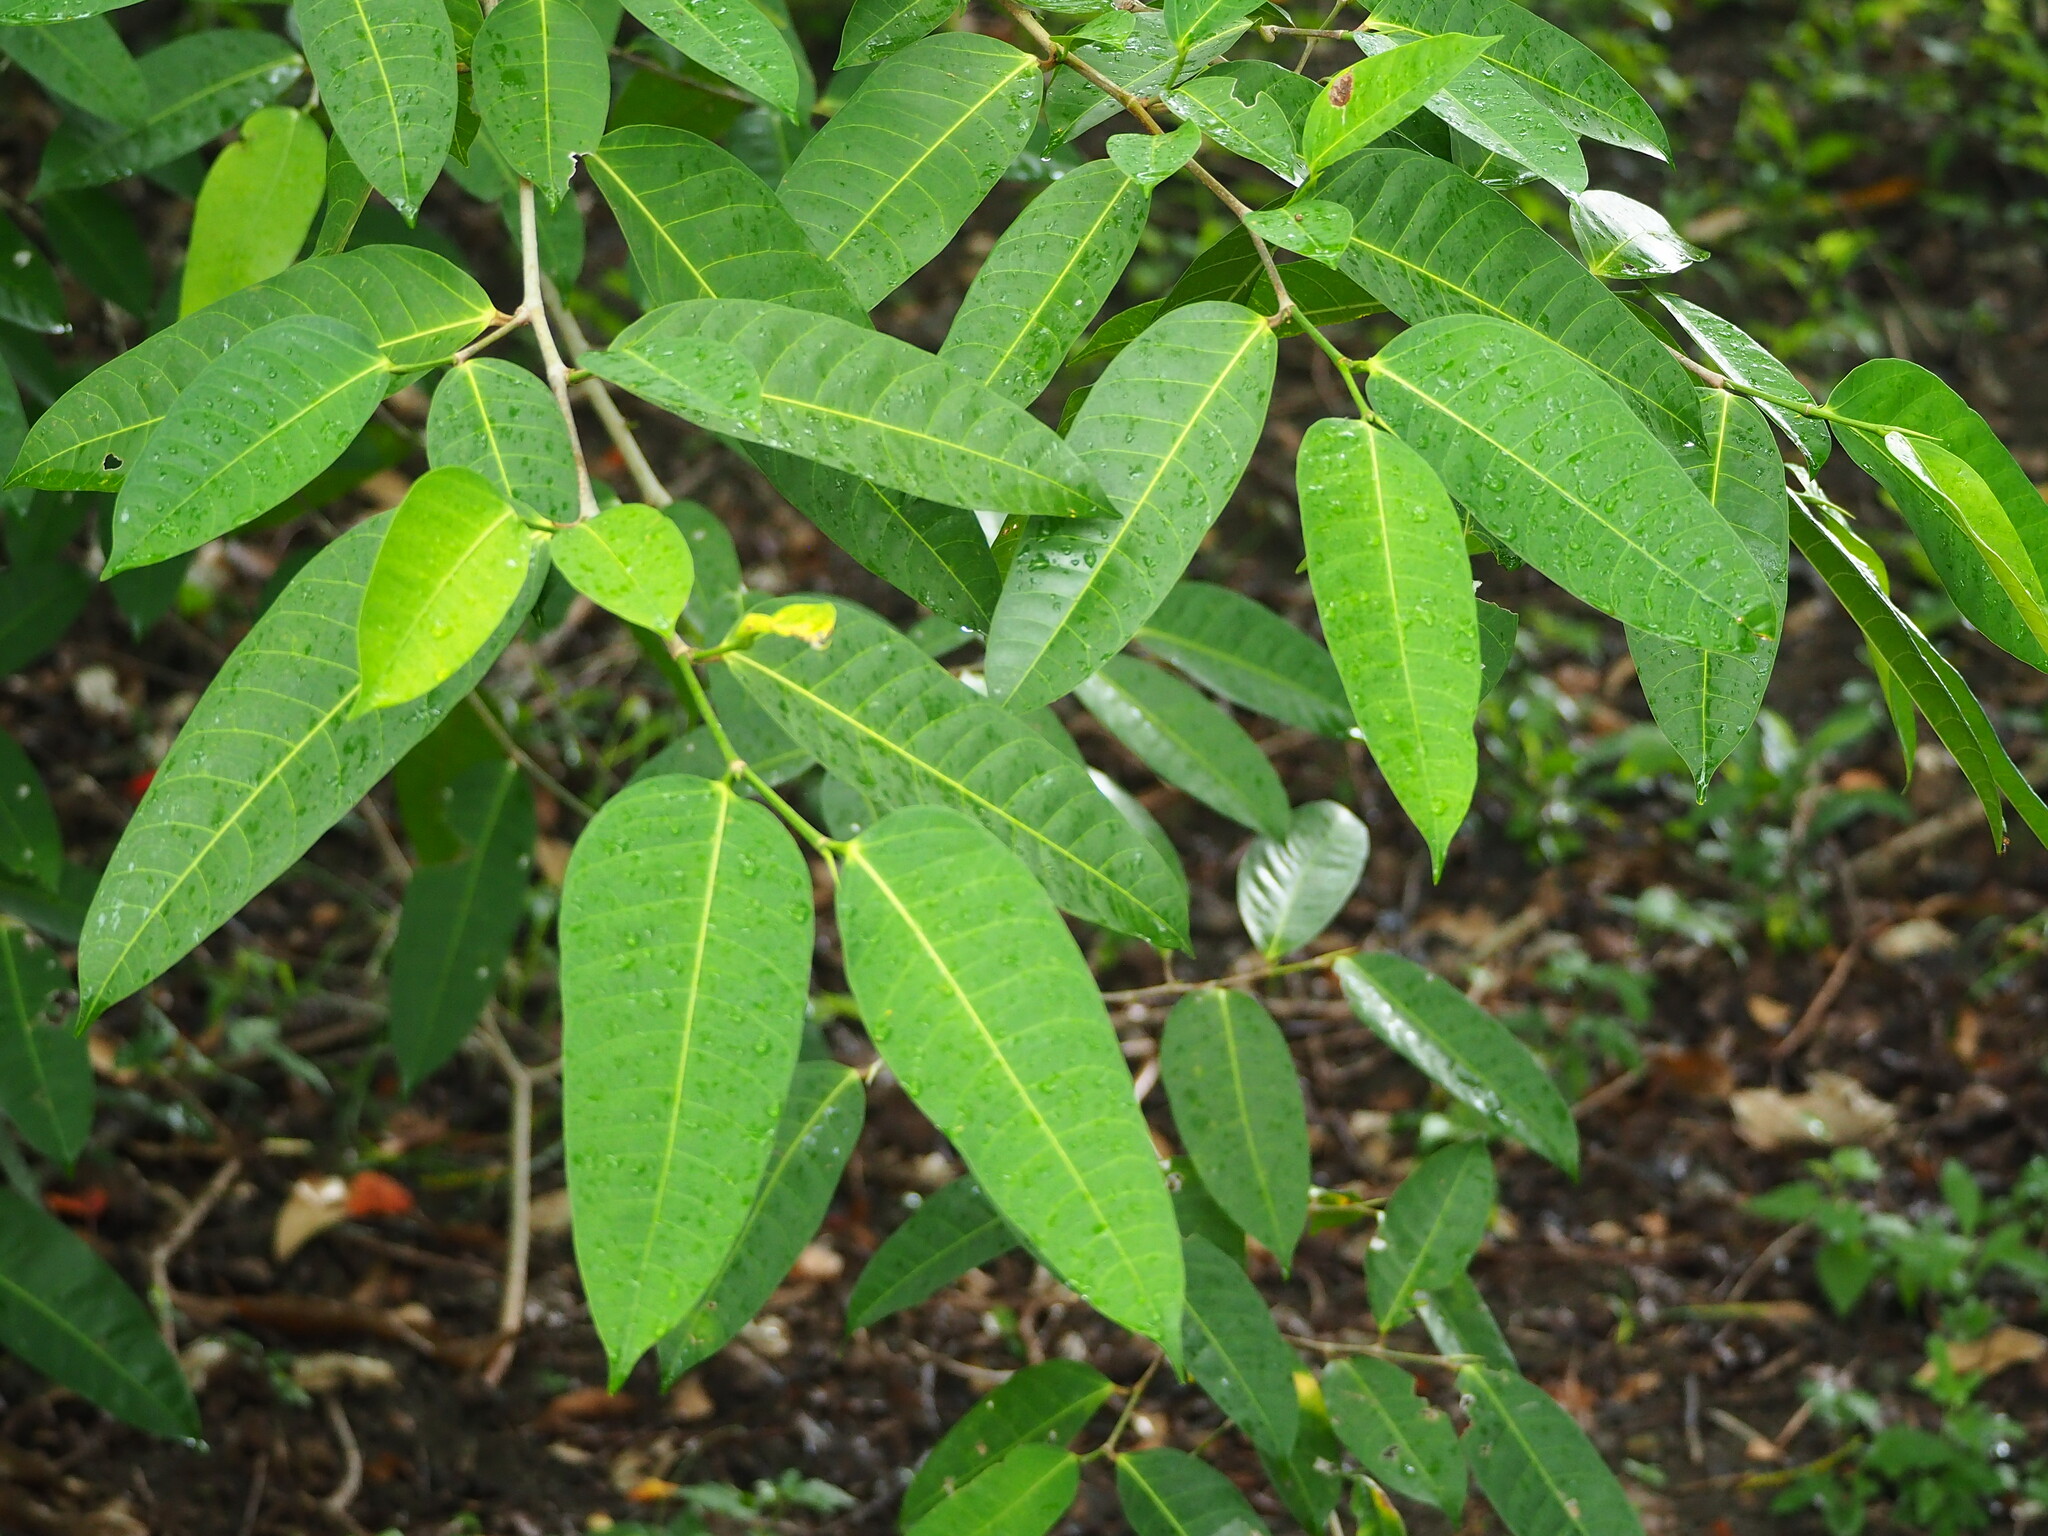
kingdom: Plantae
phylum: Tracheophyta
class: Magnoliopsida
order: Rosales
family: Moraceae
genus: Ficus
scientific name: Ficus virgata
